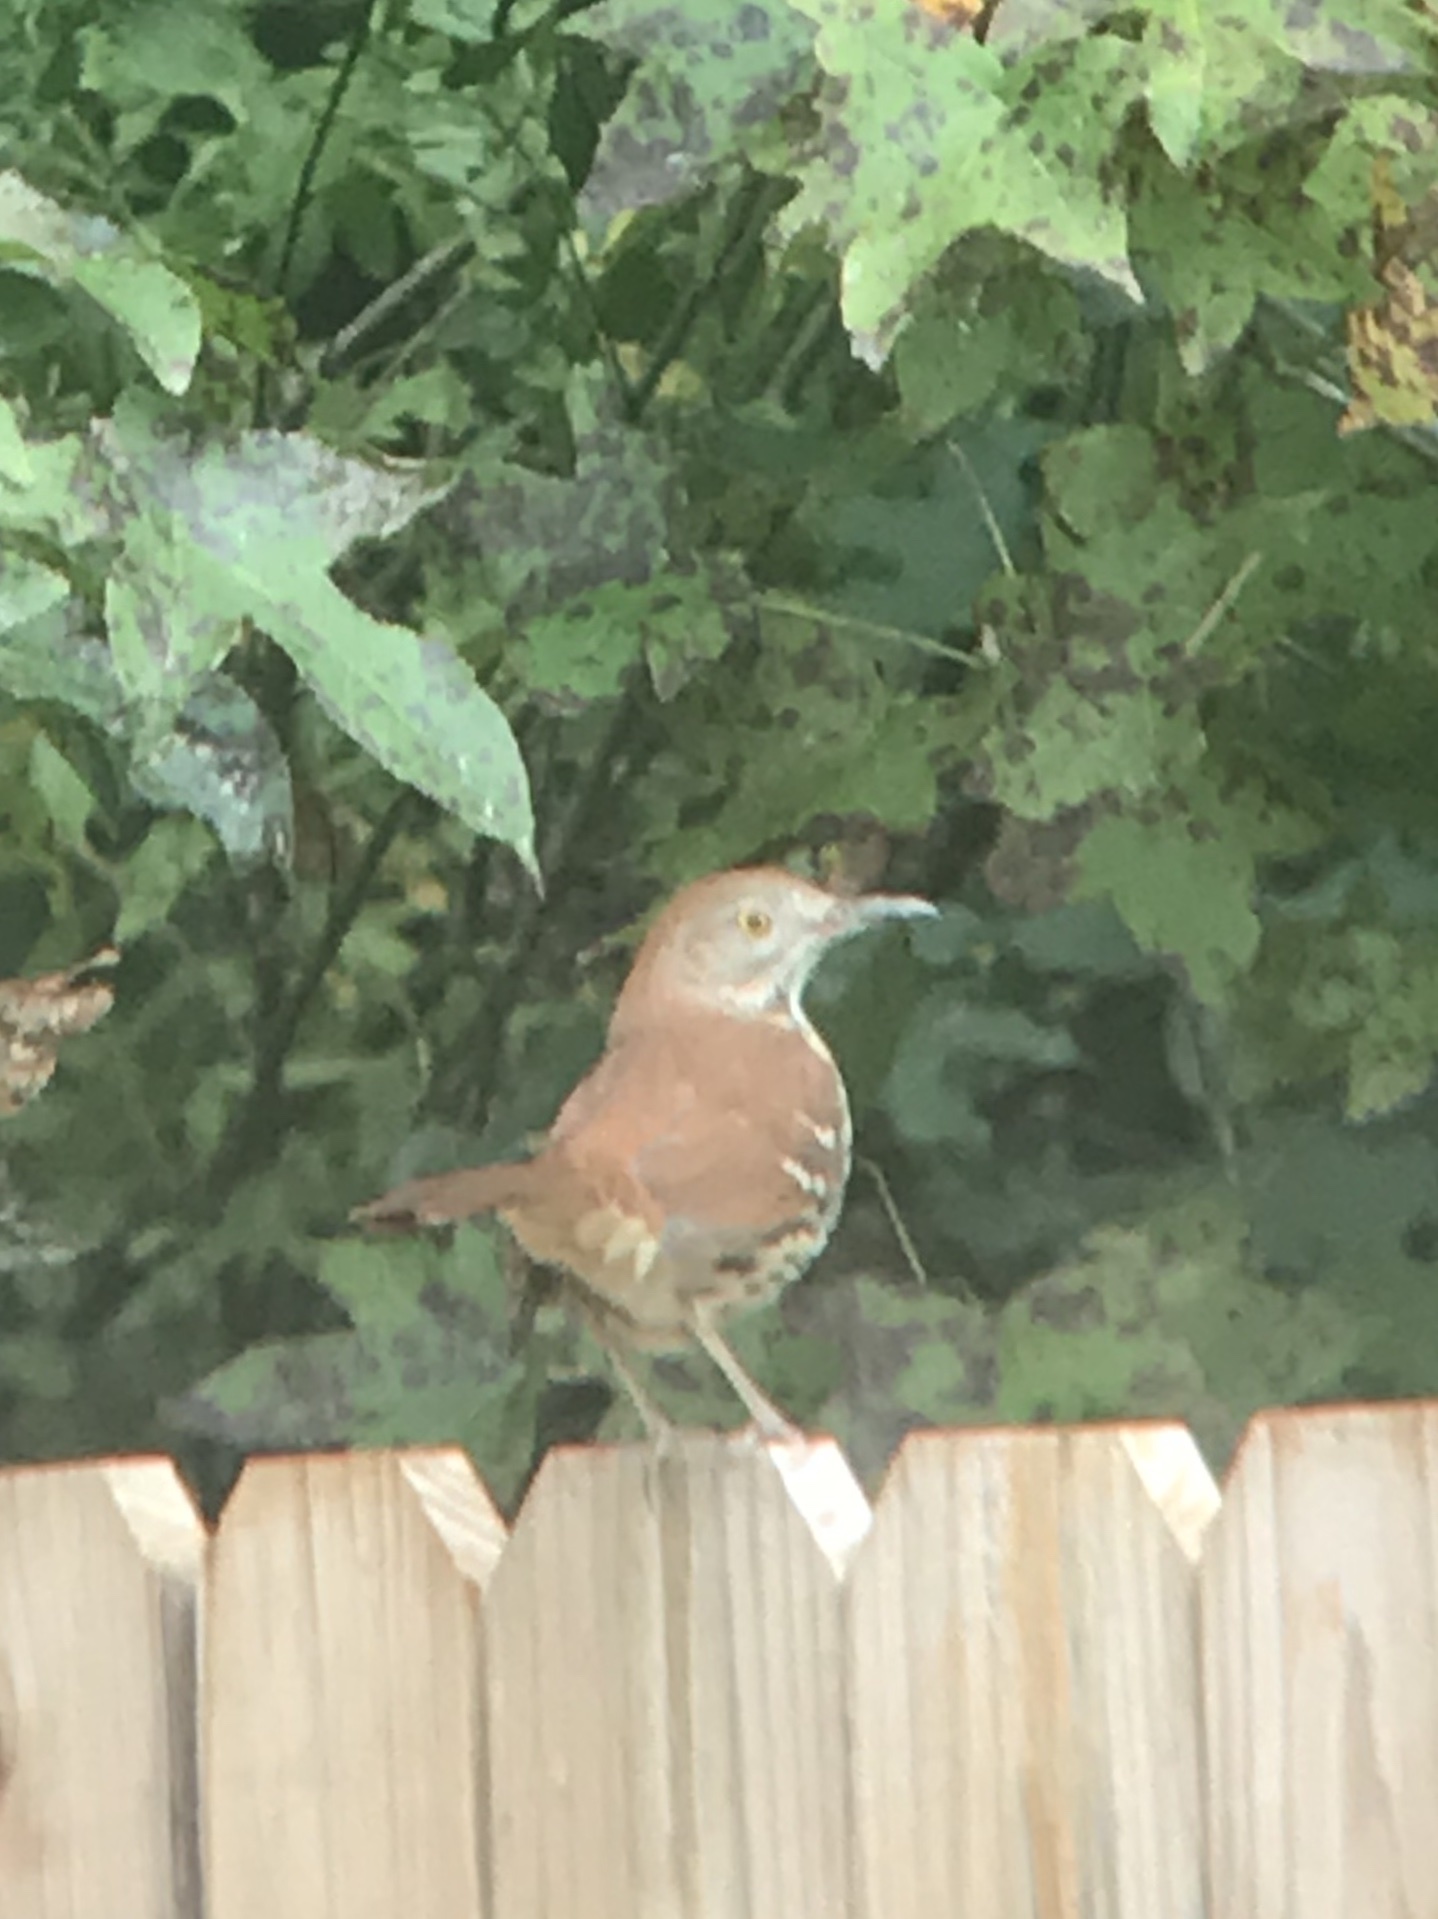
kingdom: Animalia
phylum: Chordata
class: Aves
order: Passeriformes
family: Mimidae
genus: Toxostoma
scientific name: Toxostoma rufum
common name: Brown thrasher
